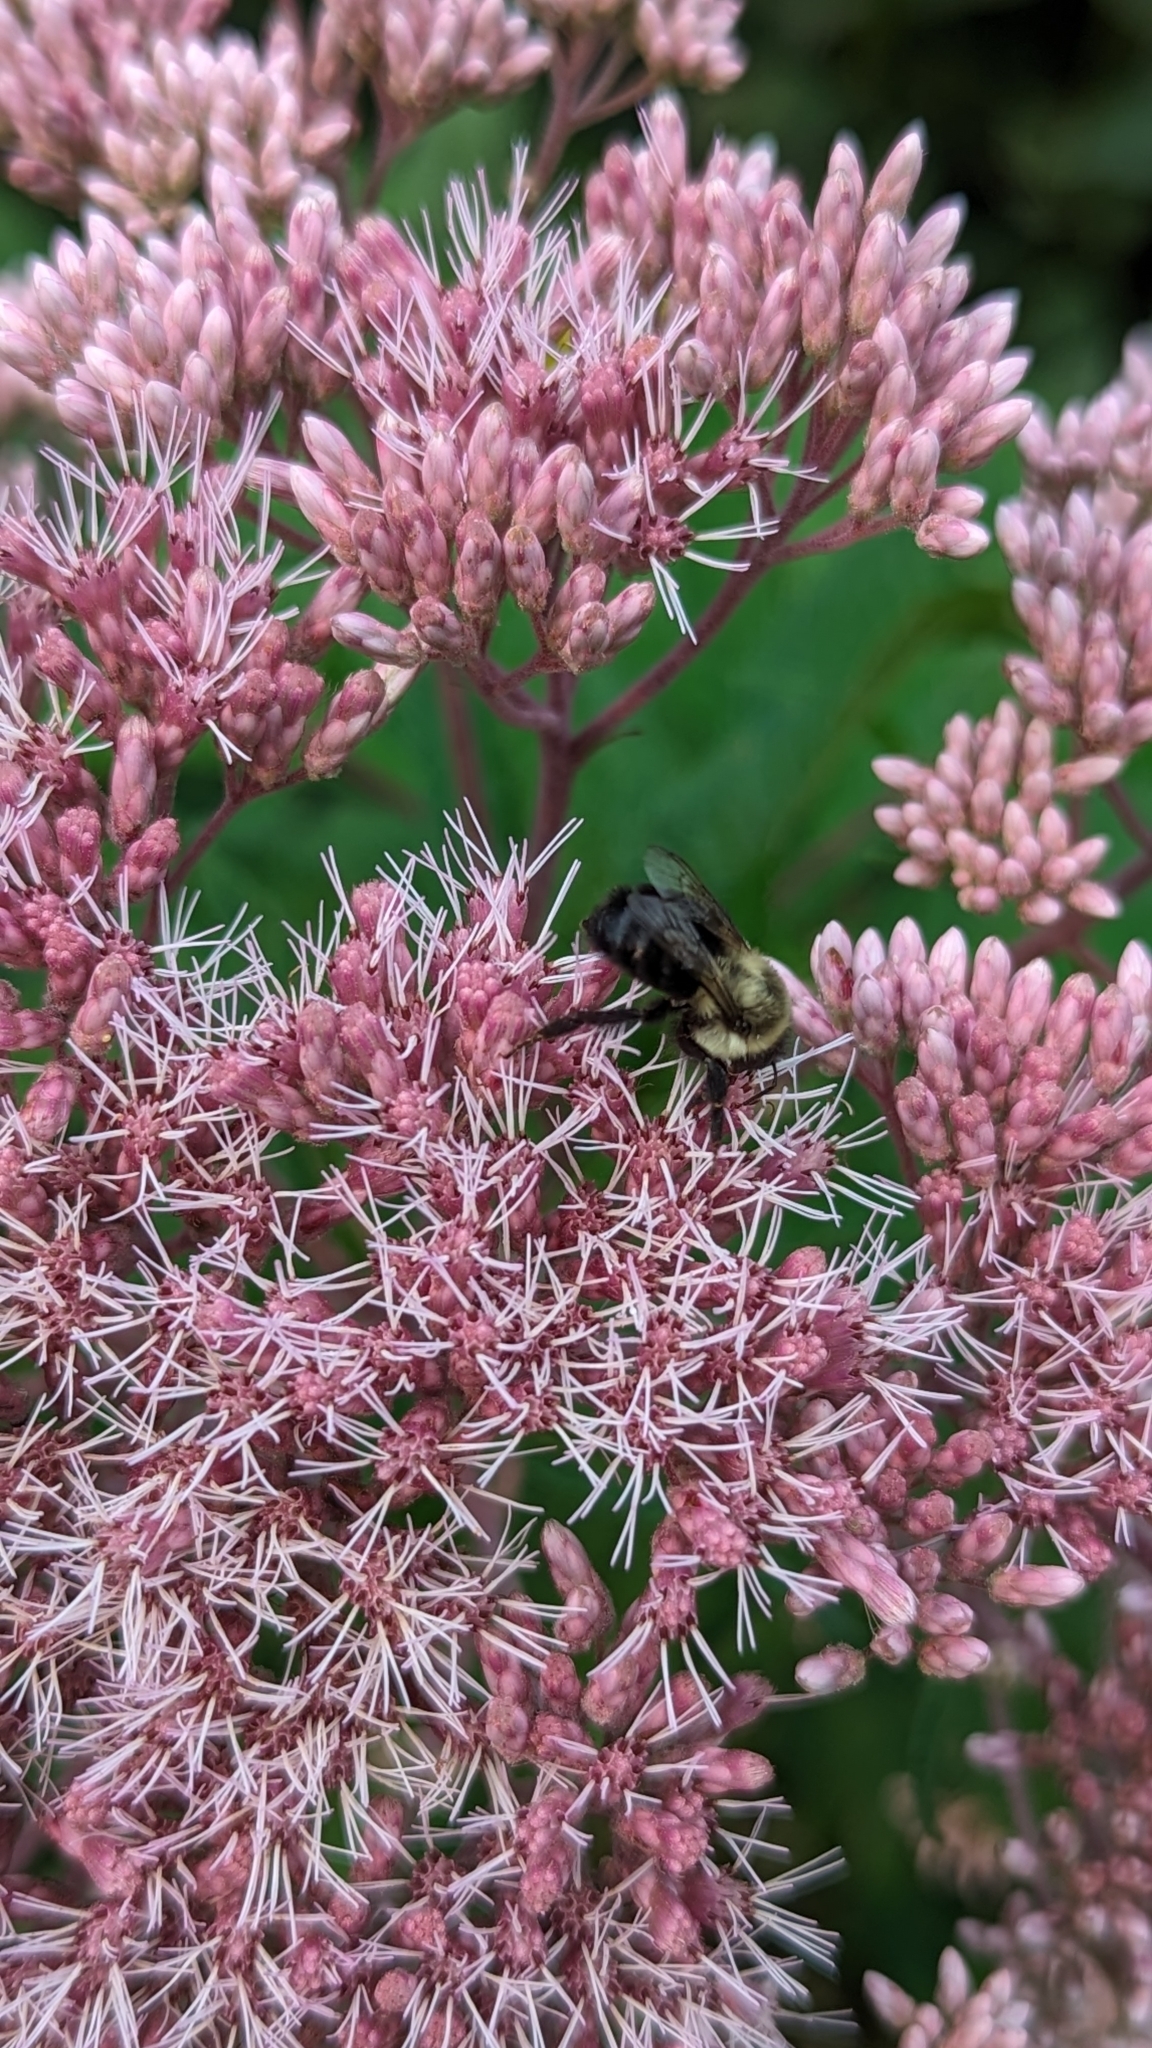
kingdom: Animalia
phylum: Arthropoda
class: Insecta
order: Hymenoptera
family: Apidae
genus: Bombus
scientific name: Bombus impatiens
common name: Common eastern bumble bee
